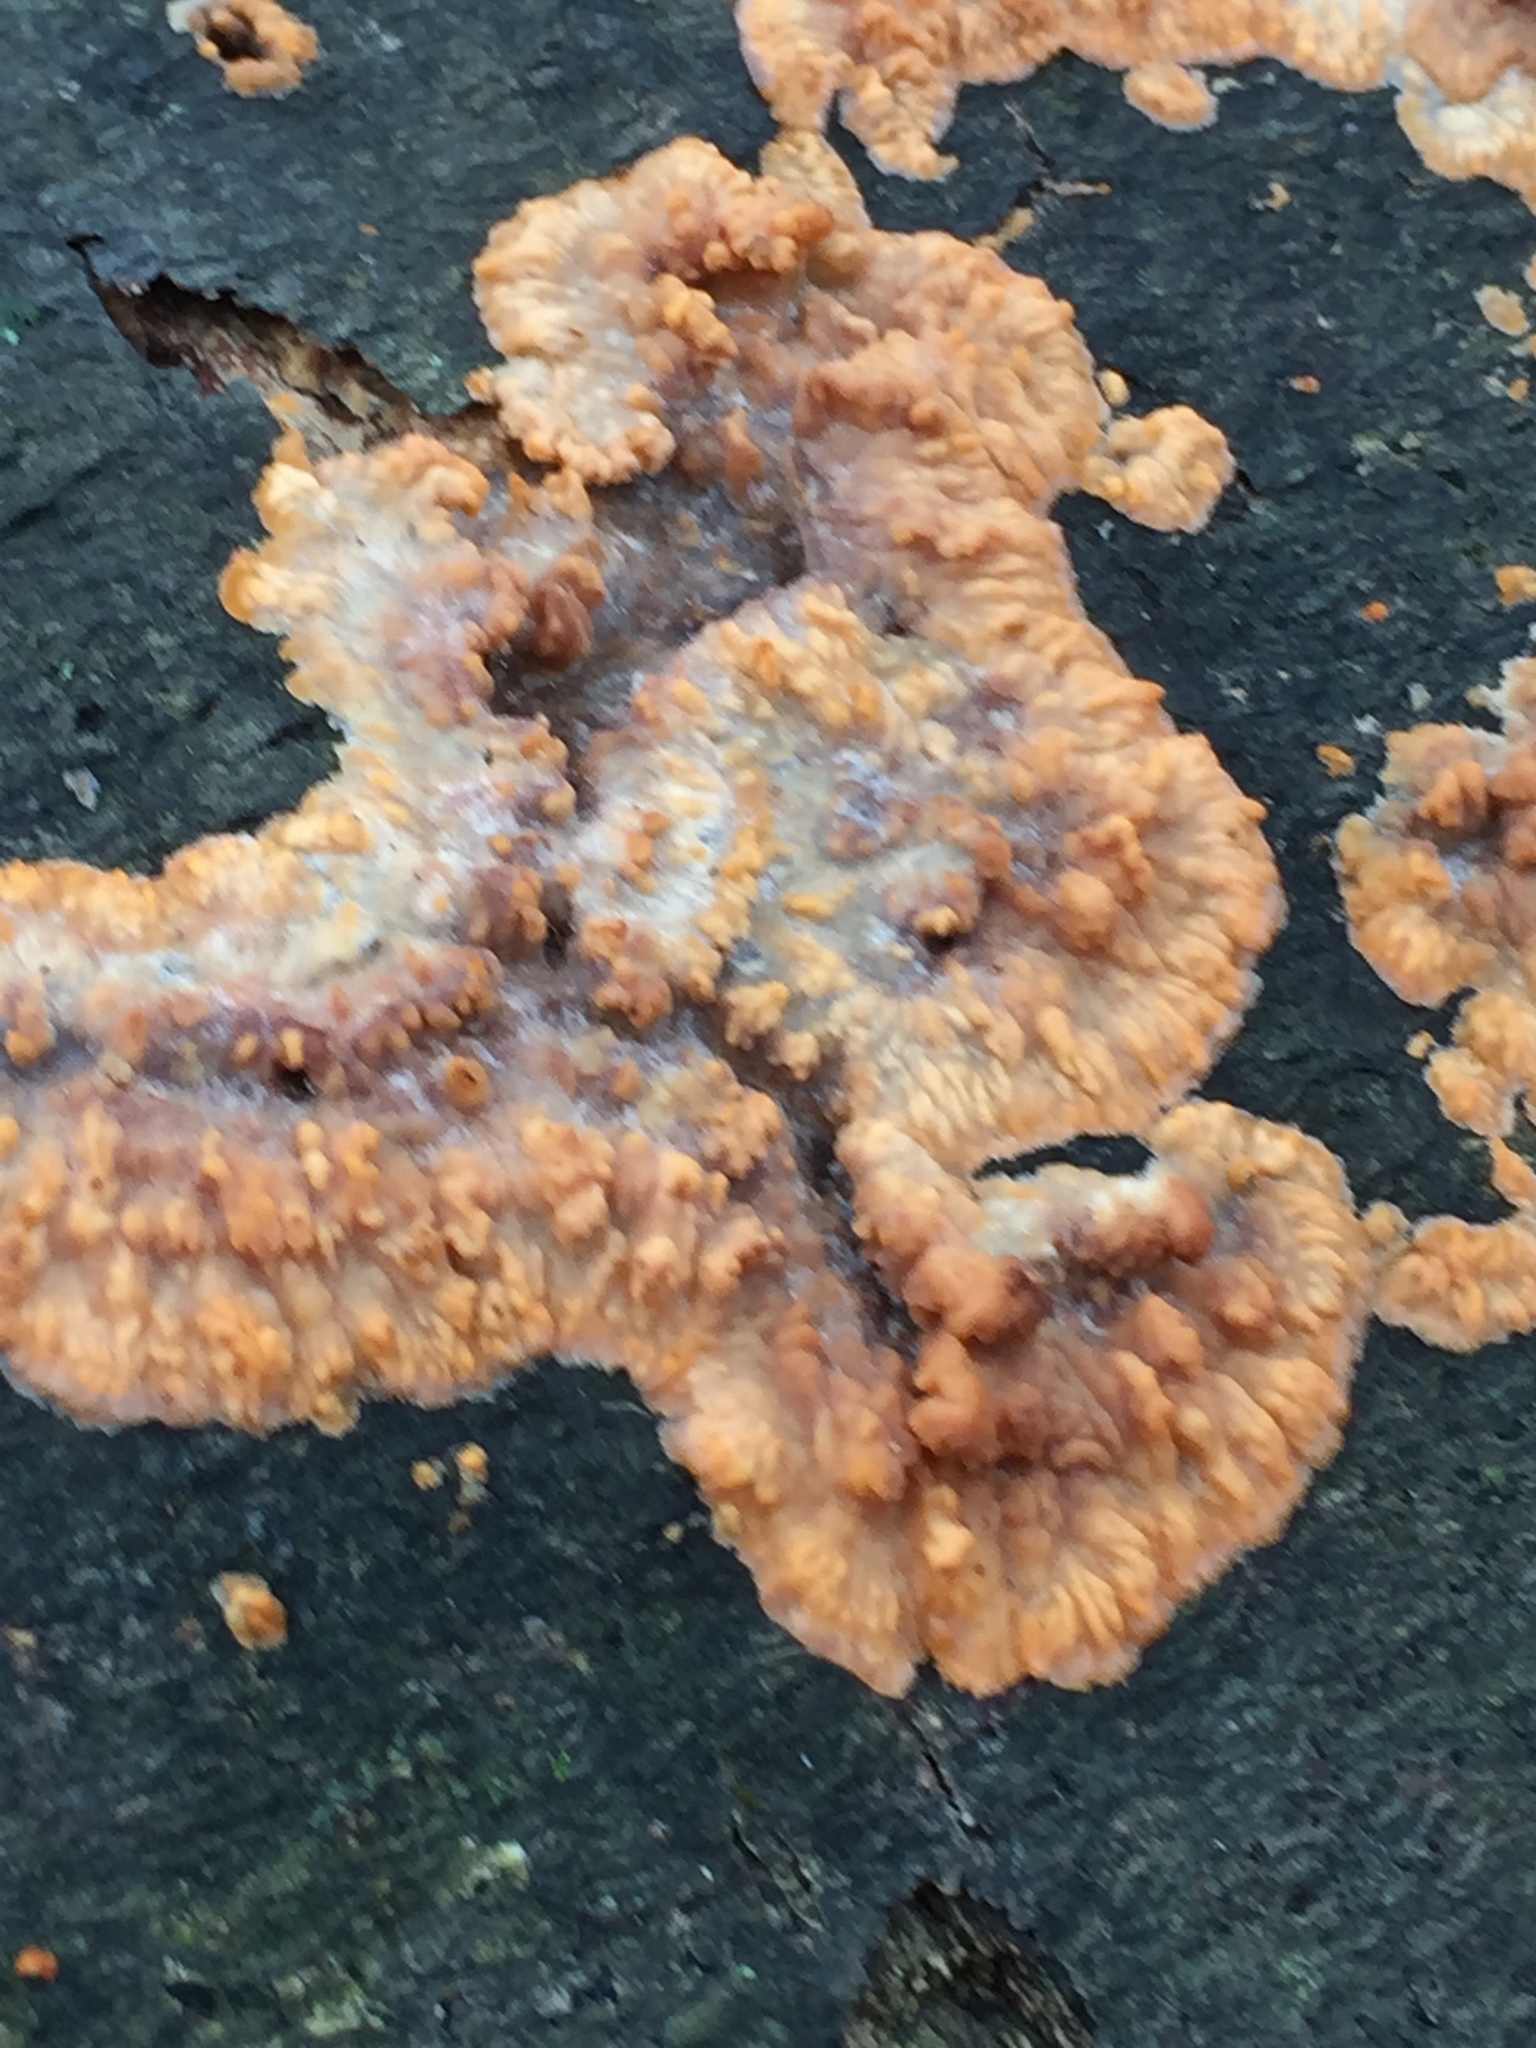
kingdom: Fungi
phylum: Basidiomycota
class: Agaricomycetes
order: Polyporales
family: Meruliaceae
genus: Phlebia
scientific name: Phlebia radiata
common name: Wrinkled crust
